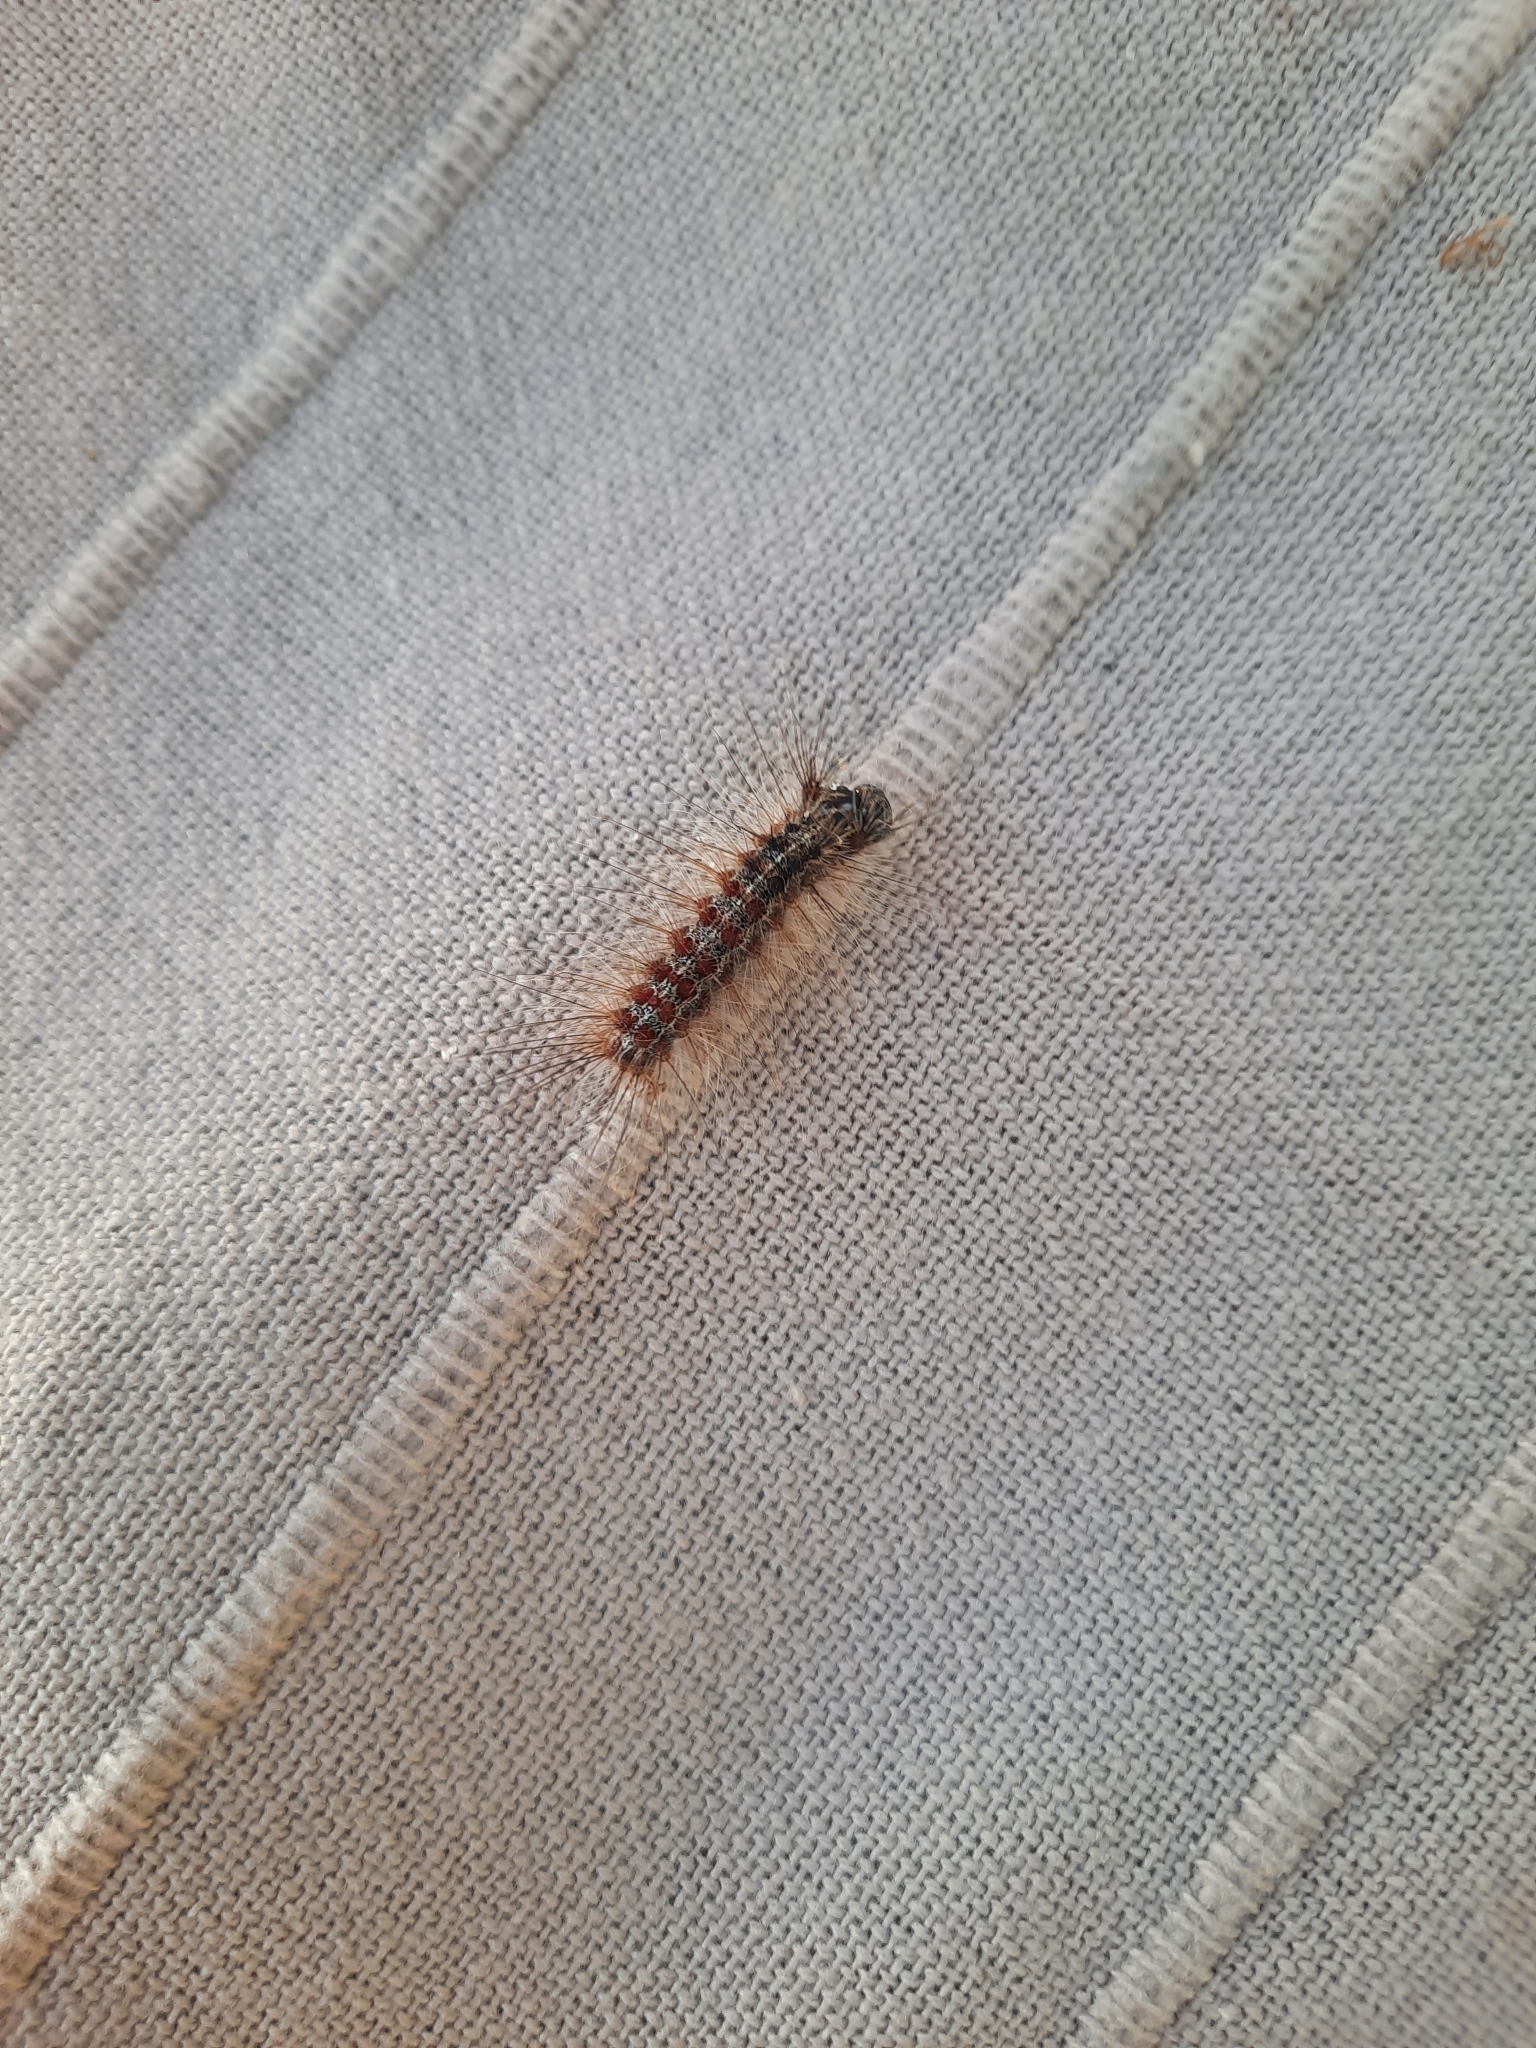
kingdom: Animalia
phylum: Arthropoda
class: Insecta
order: Lepidoptera
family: Erebidae
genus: Lymantria
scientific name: Lymantria dispar
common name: Gypsy moth
